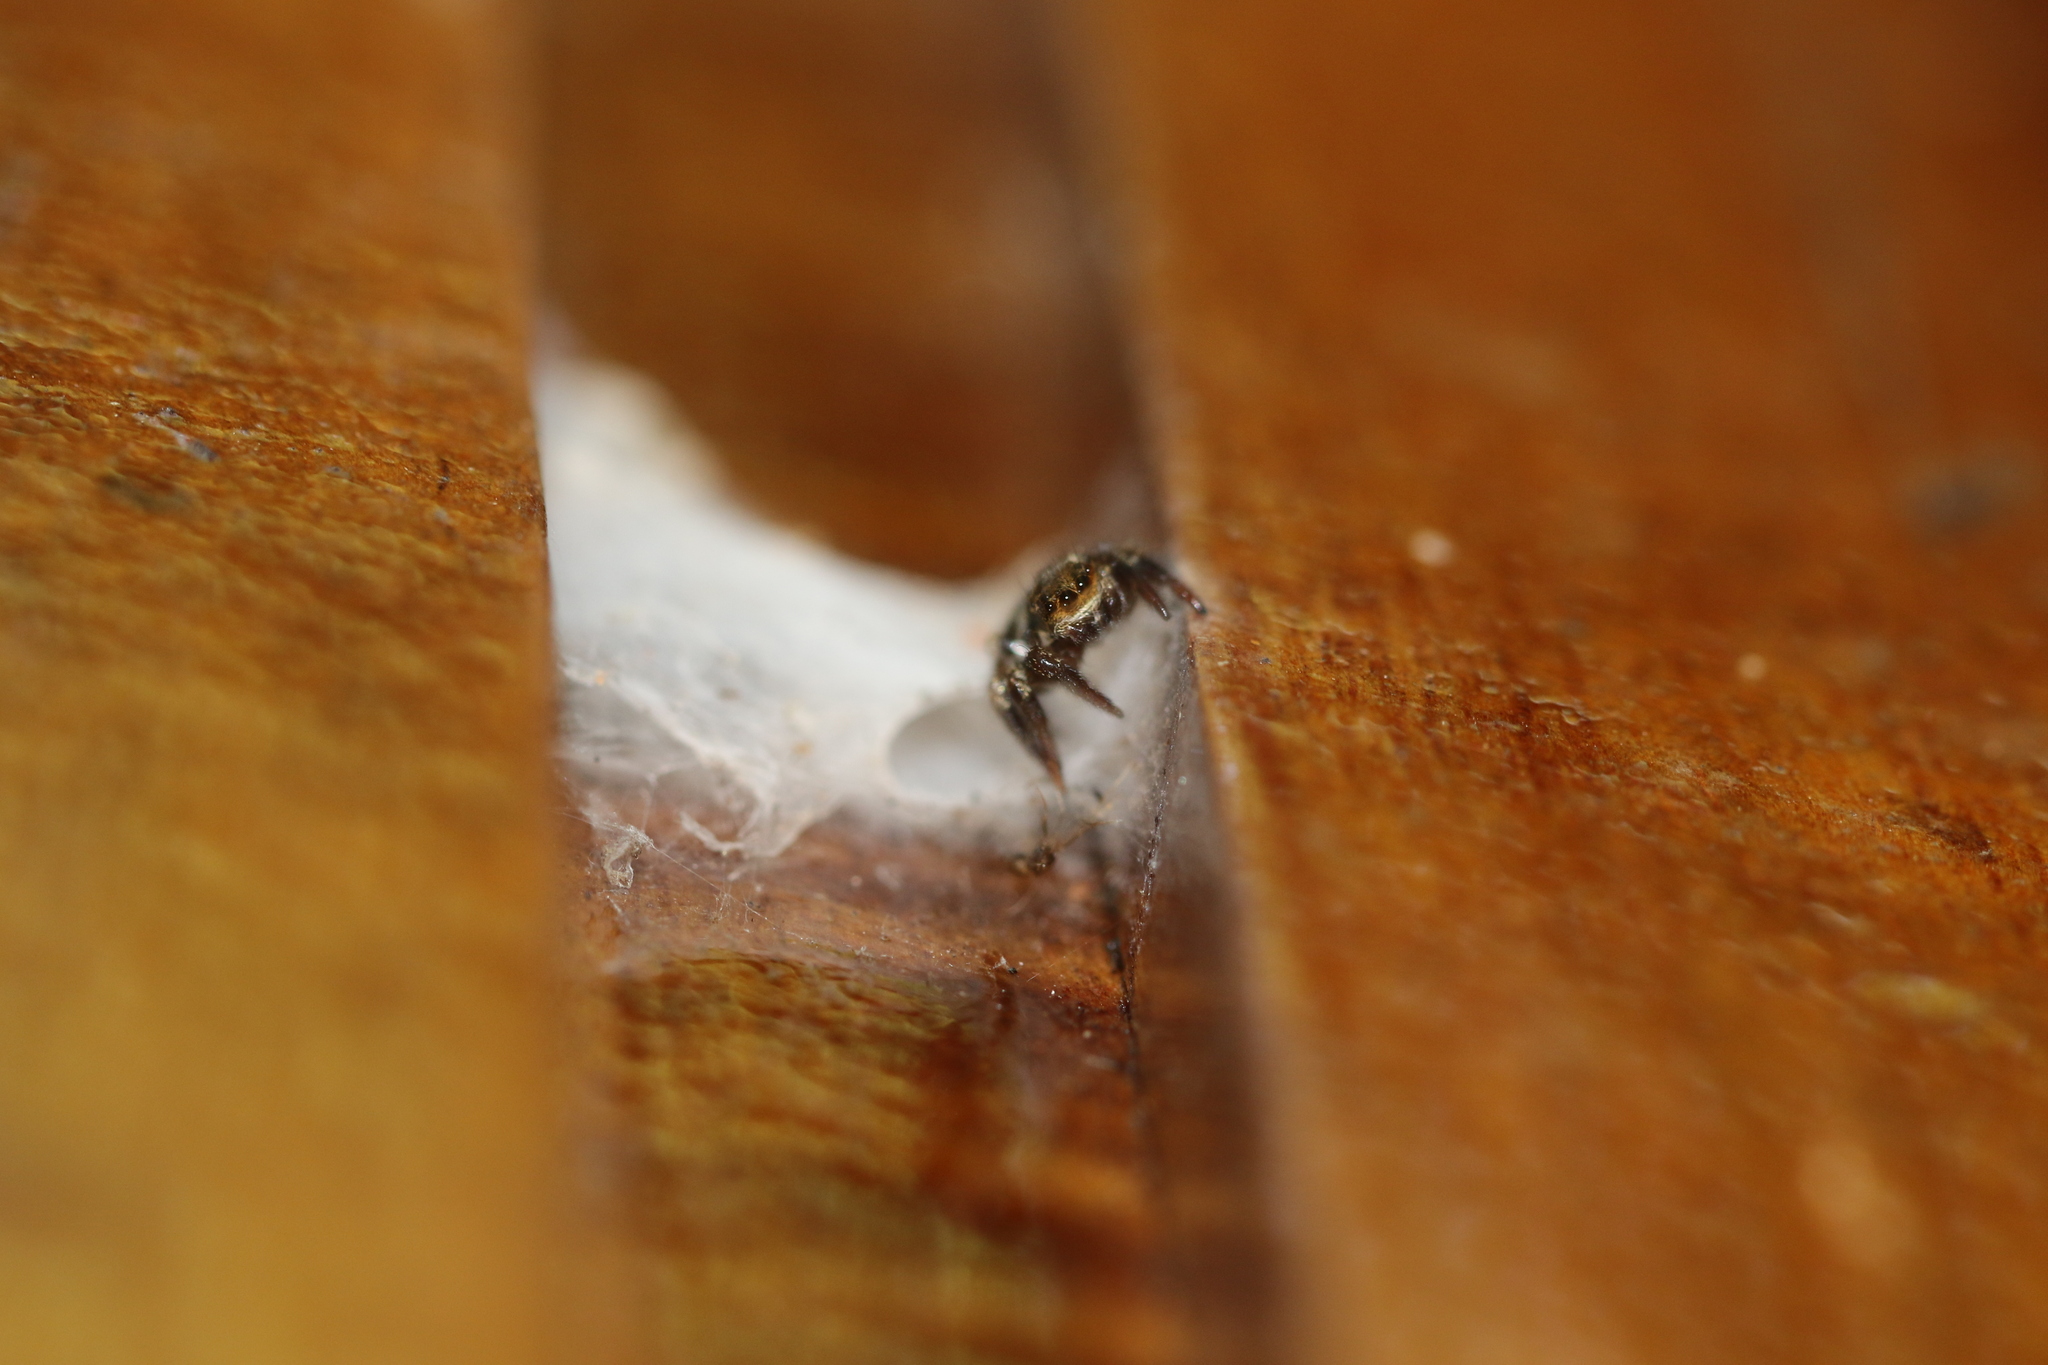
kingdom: Animalia
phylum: Arthropoda
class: Arachnida
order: Araneae
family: Salticidae
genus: Corythalia
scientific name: Corythalia conferta
